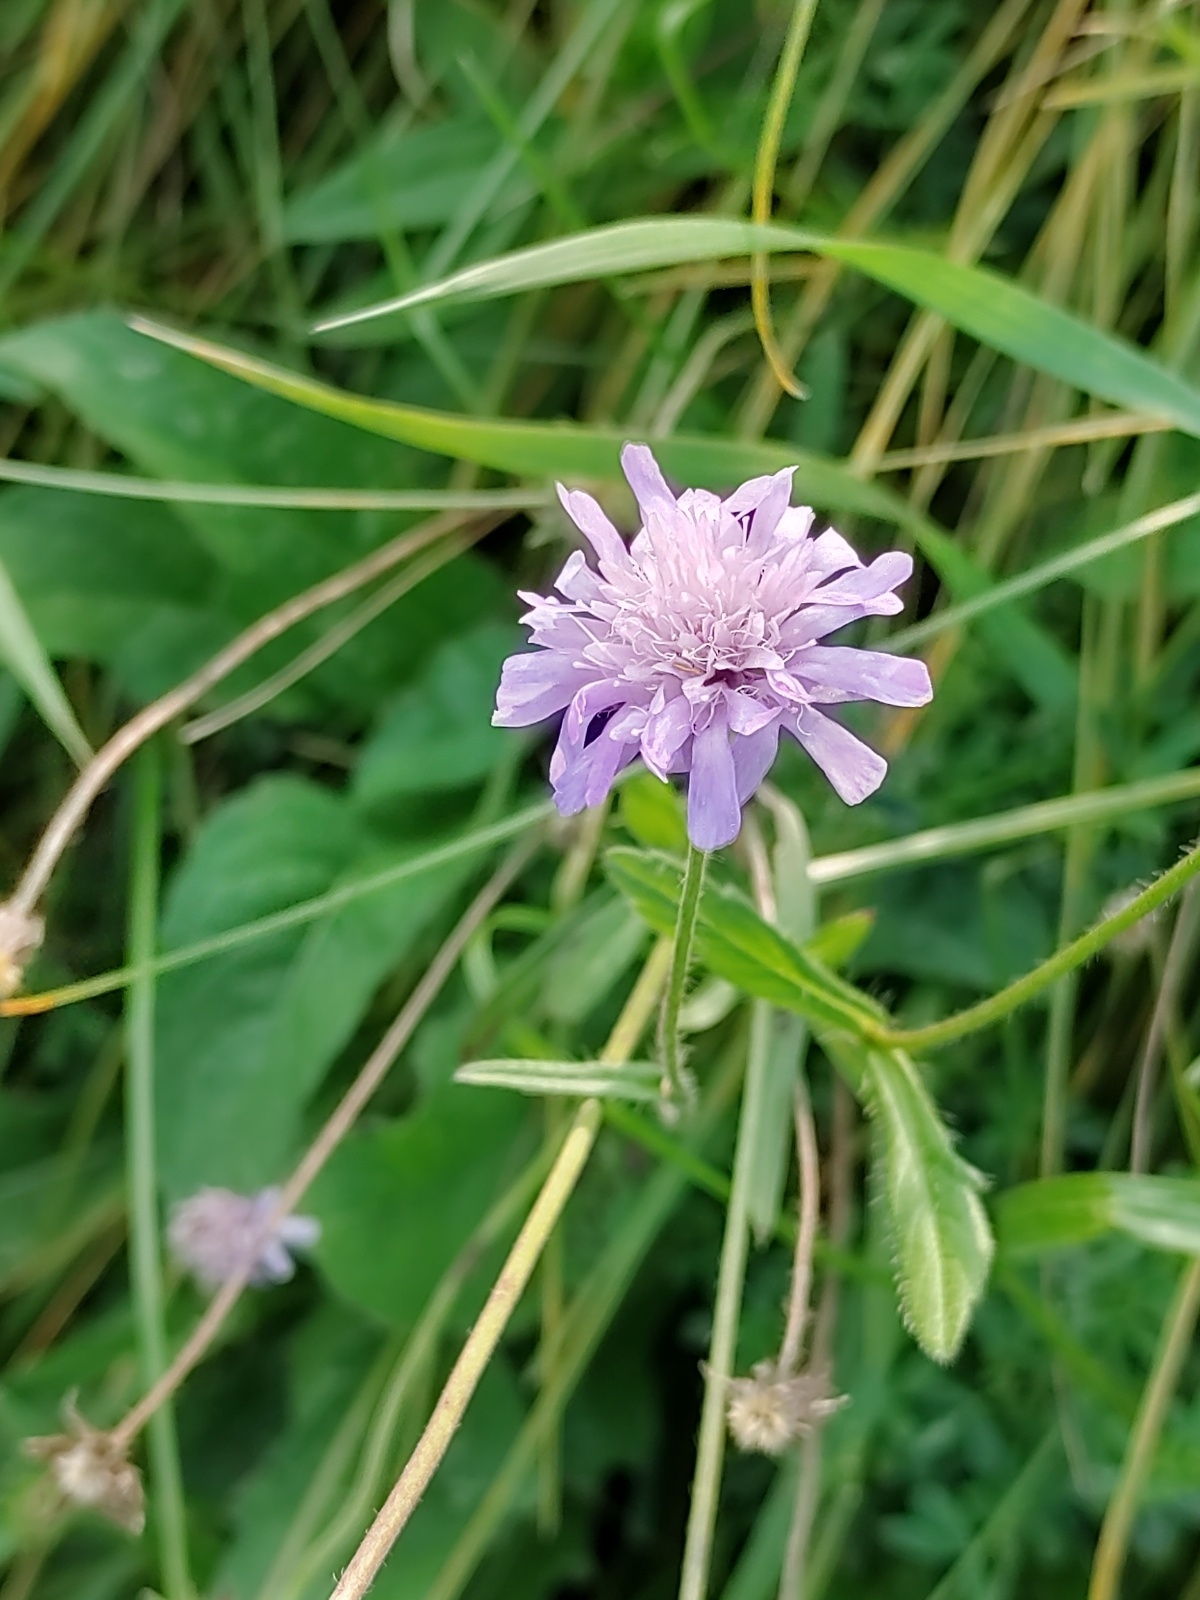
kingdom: Plantae
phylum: Tracheophyta
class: Magnoliopsida
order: Dipsacales
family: Caprifoliaceae
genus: Knautia
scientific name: Knautia arvensis
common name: Field scabiosa
